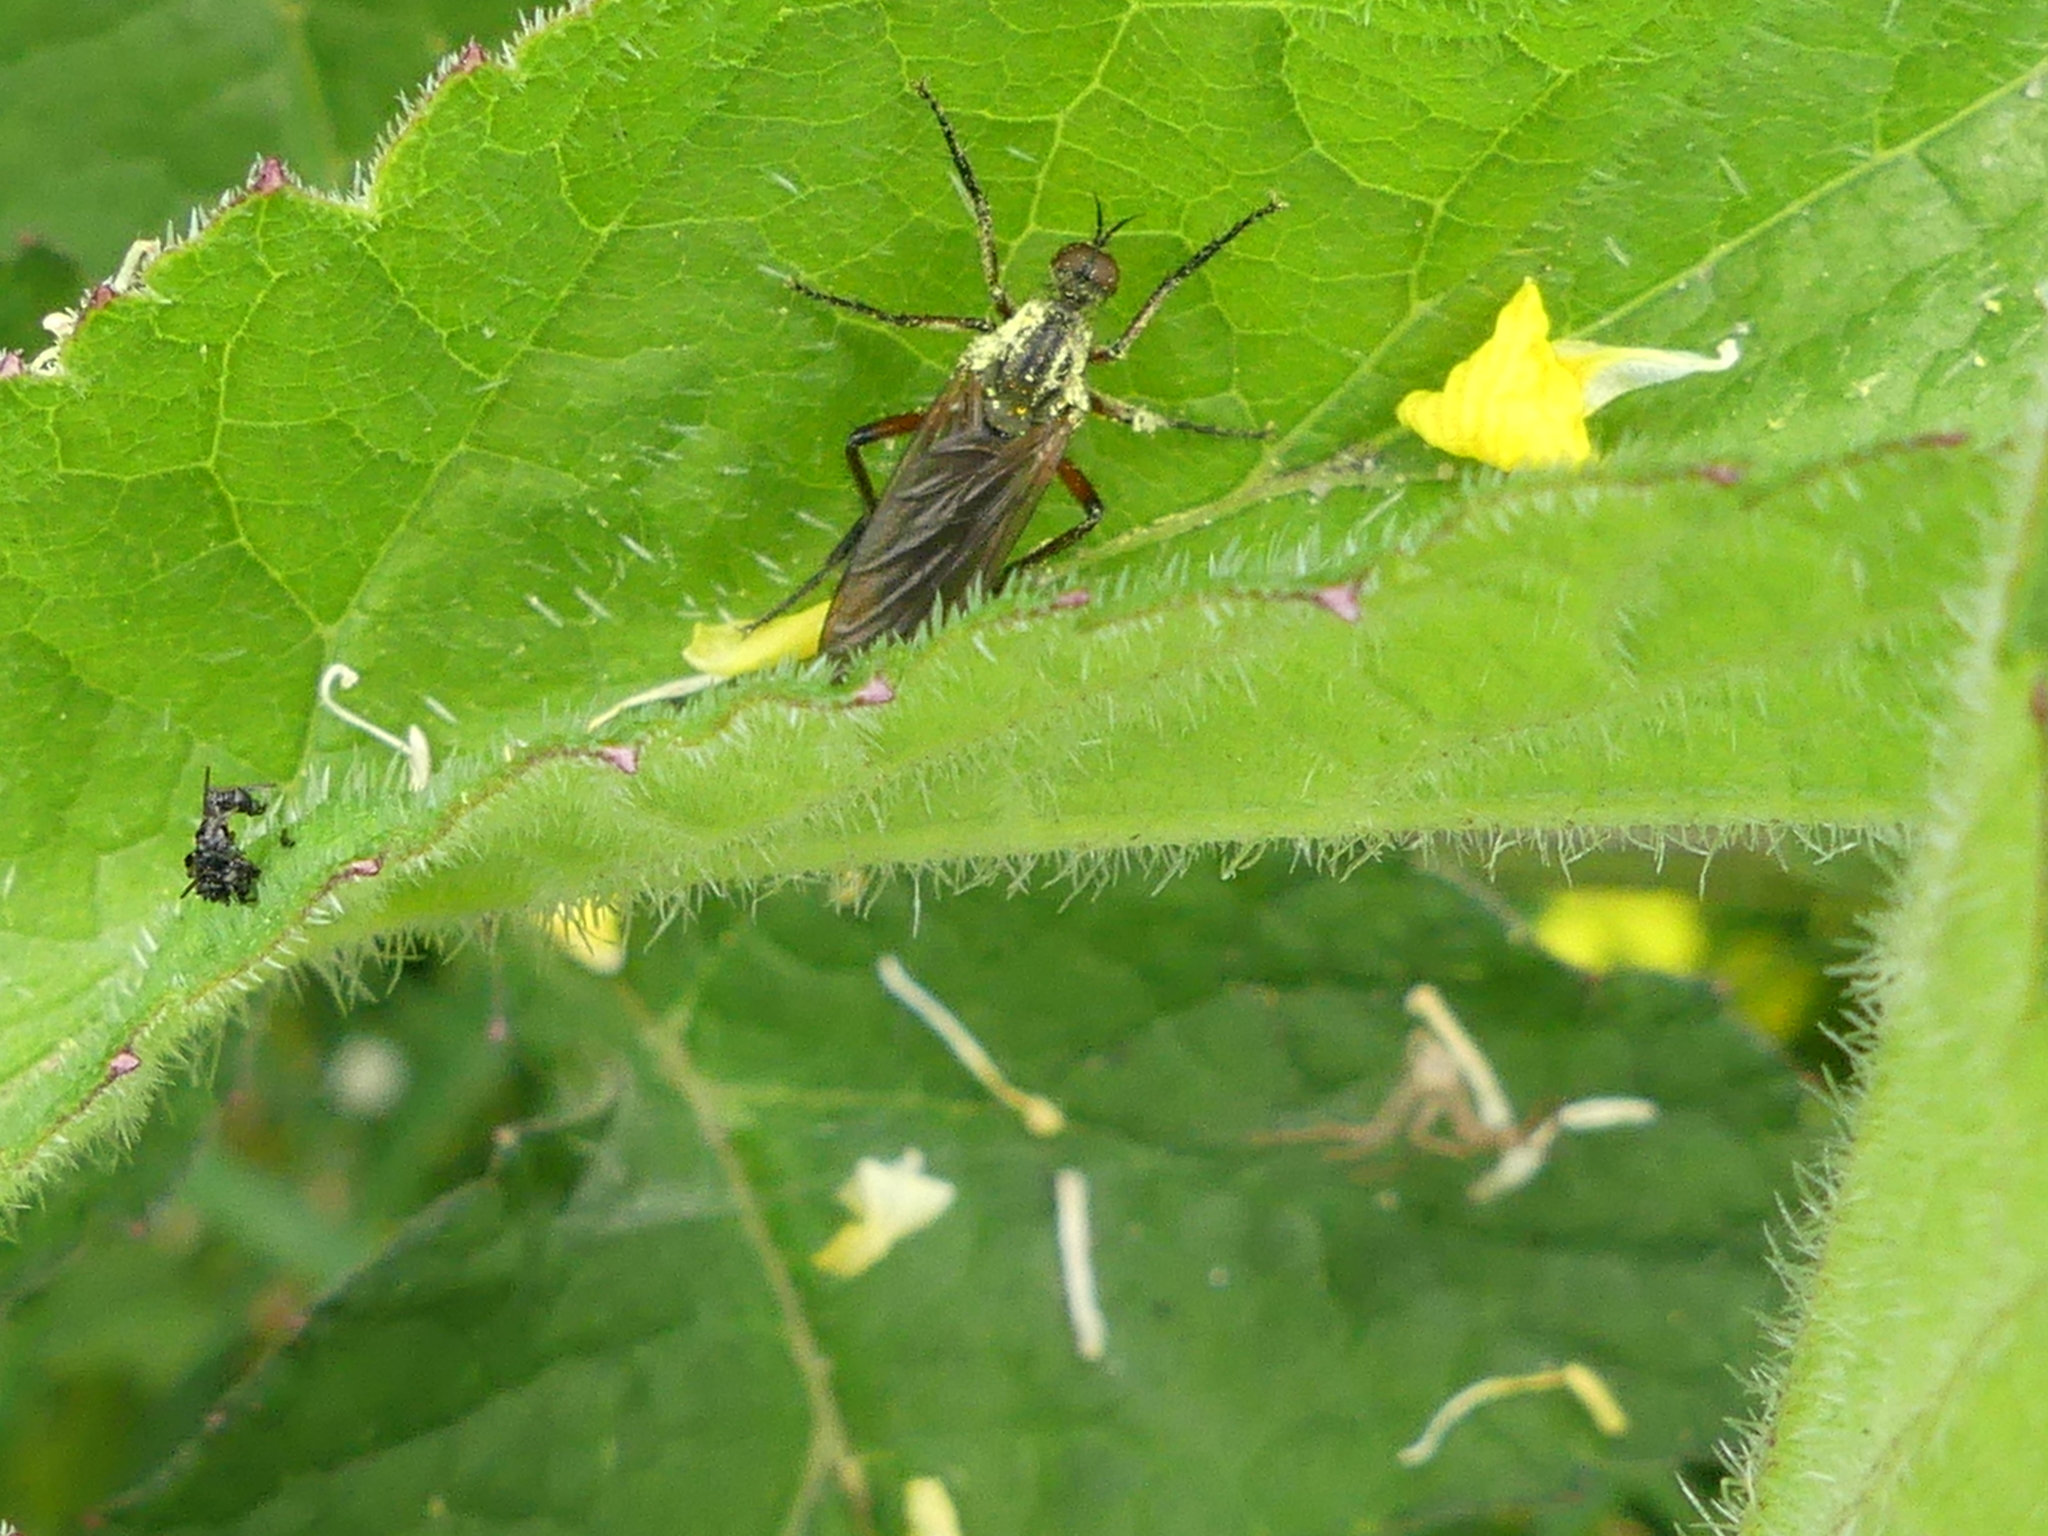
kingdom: Animalia
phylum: Arthropoda
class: Insecta
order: Diptera
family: Empididae
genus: Empis
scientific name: Empis opaca
